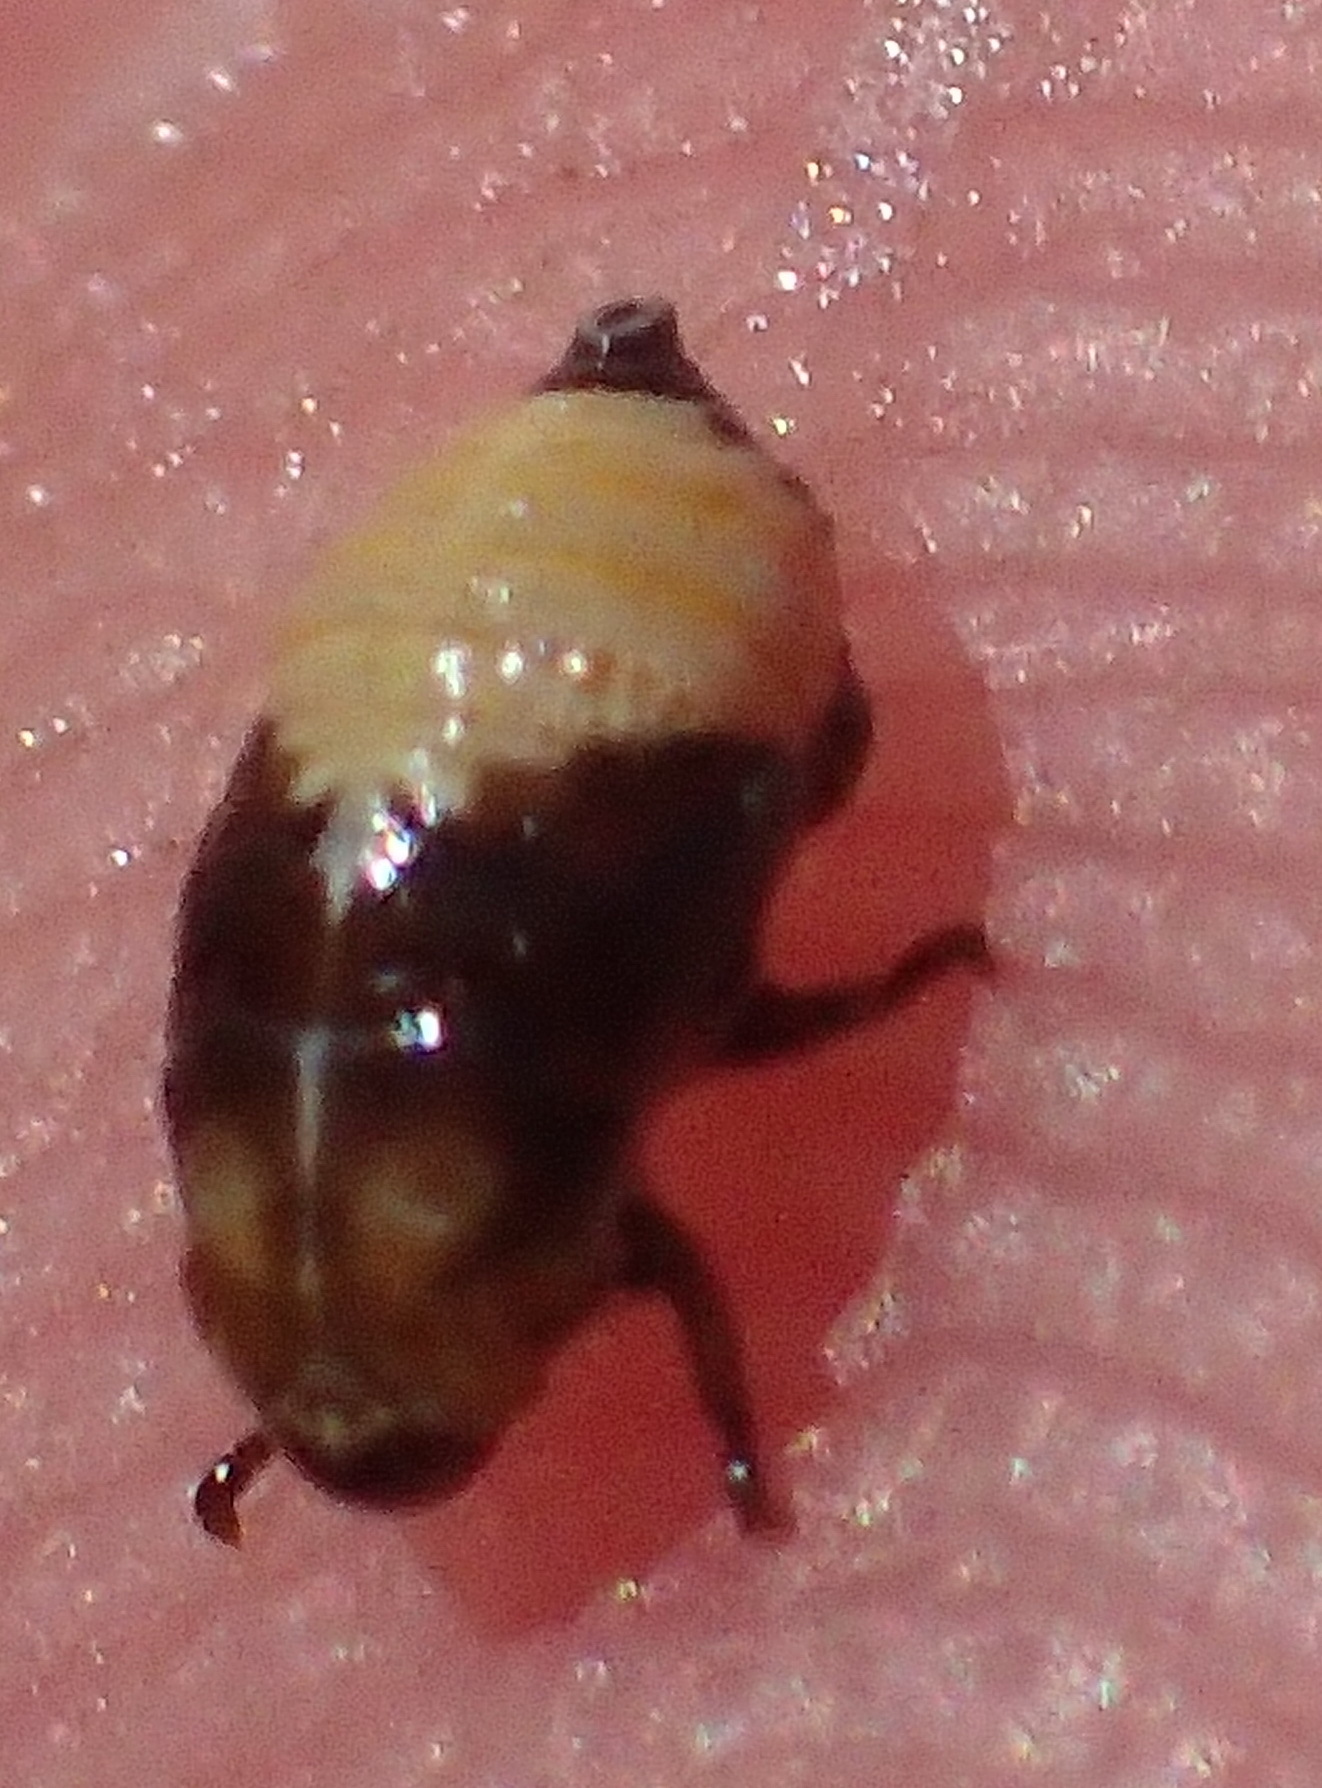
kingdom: Animalia
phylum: Arthropoda
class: Insecta
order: Hemiptera
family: Aphrophoridae
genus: Tremapterus
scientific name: Tremapterus
